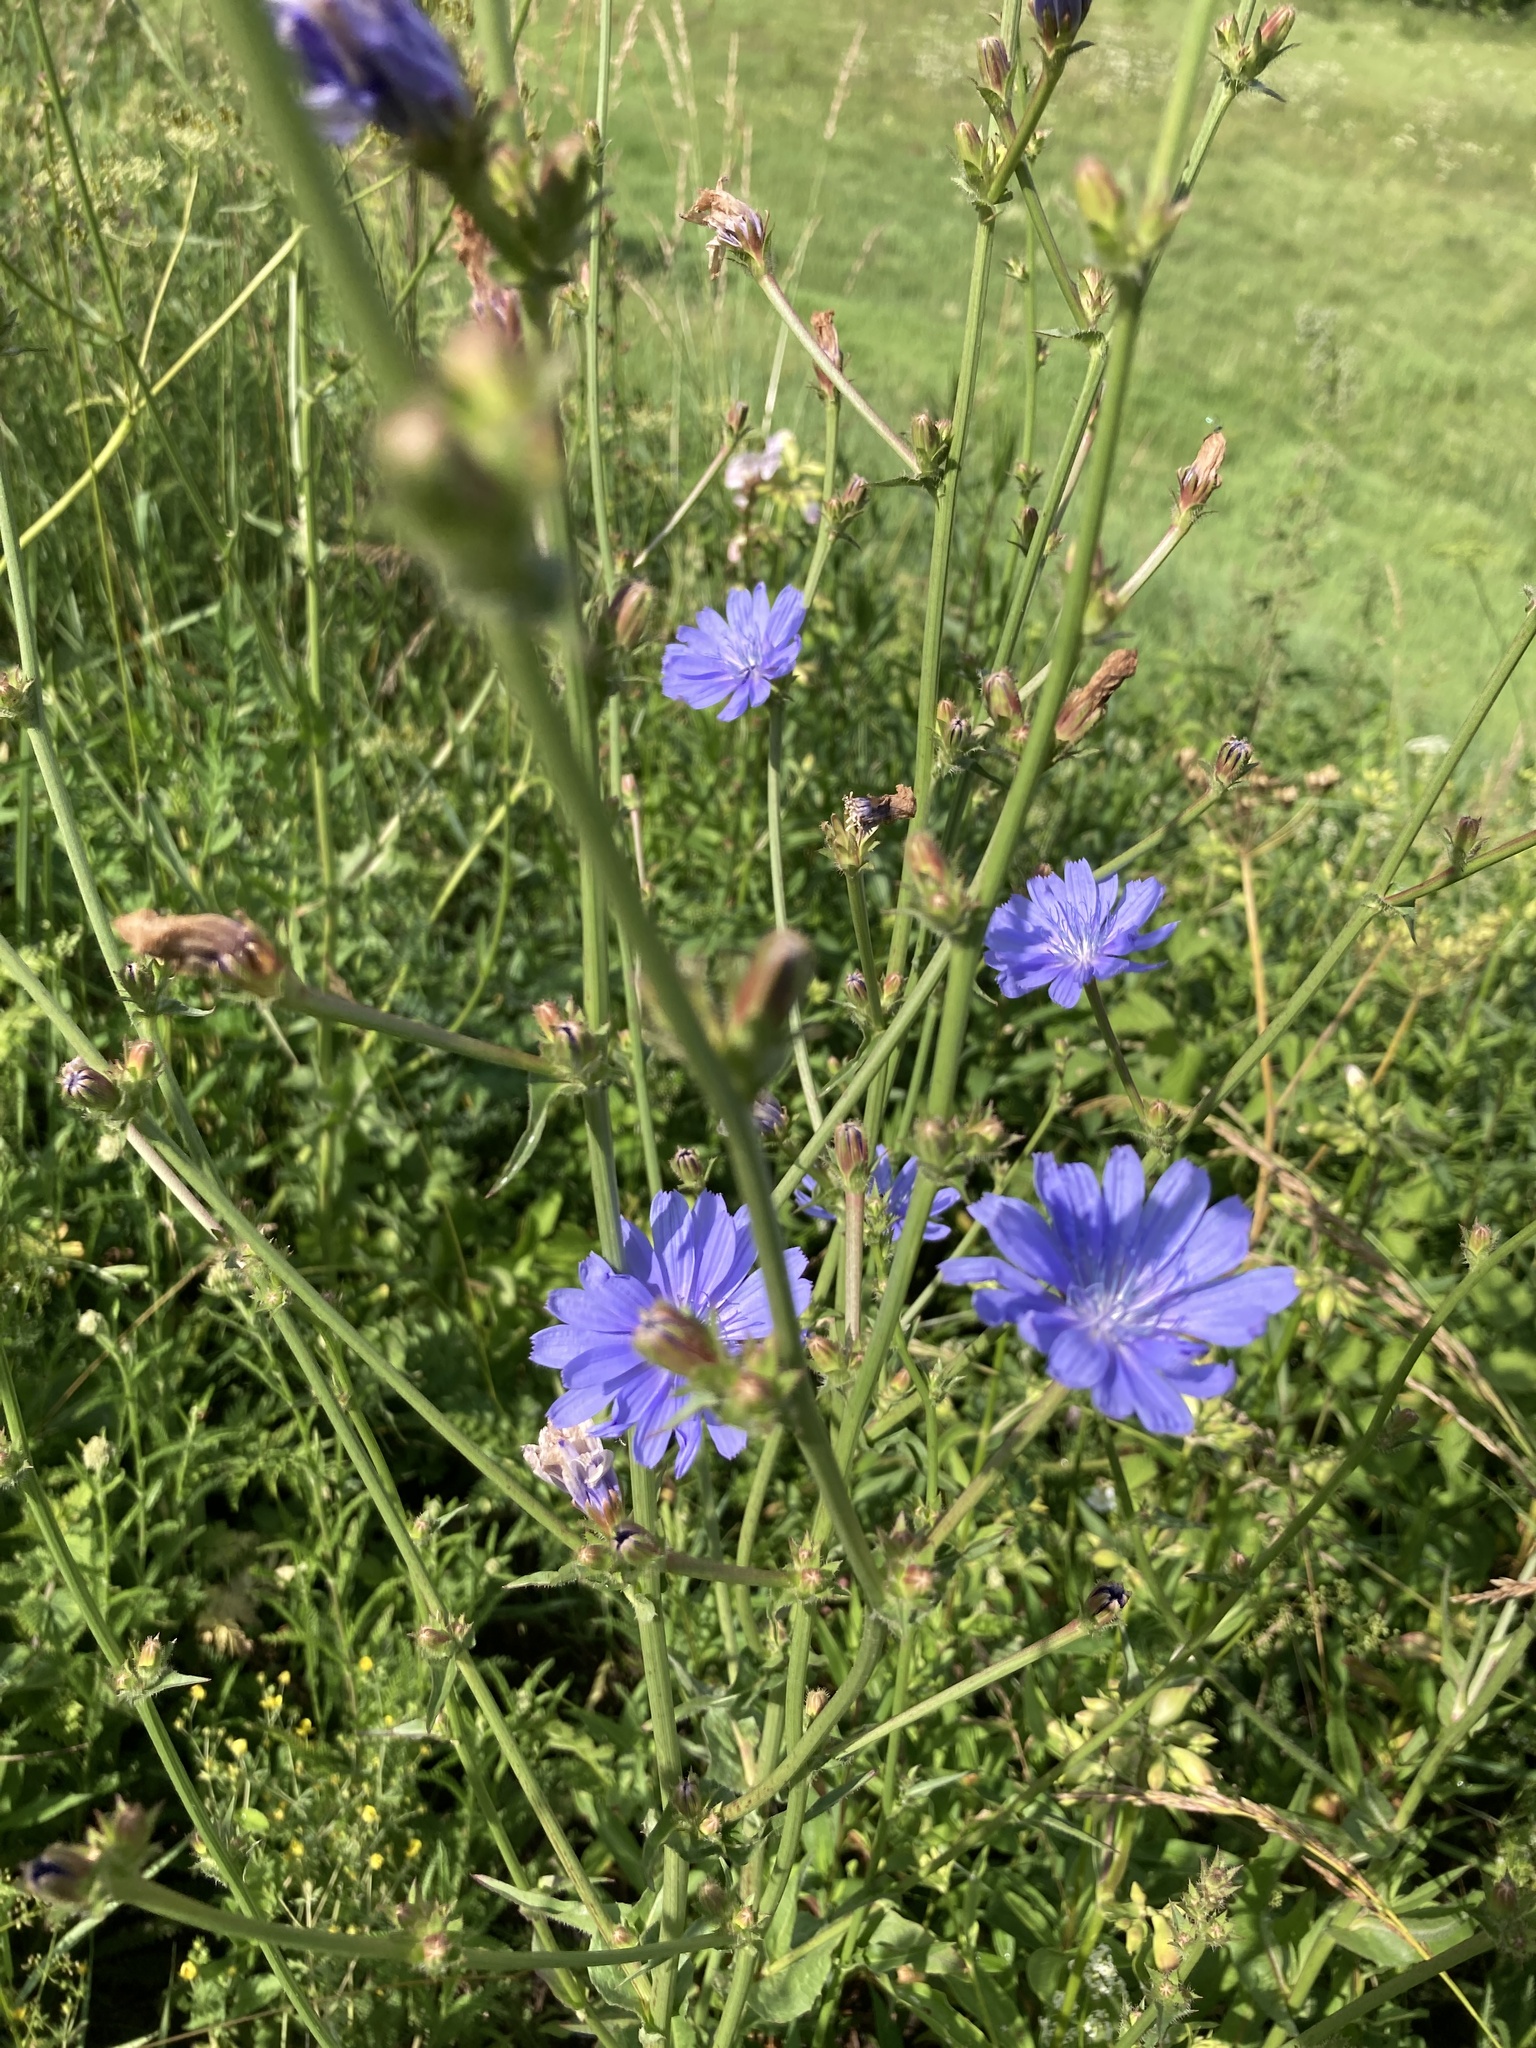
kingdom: Plantae
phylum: Tracheophyta
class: Magnoliopsida
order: Asterales
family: Asteraceae
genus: Cichorium
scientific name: Cichorium intybus
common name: Chicory
